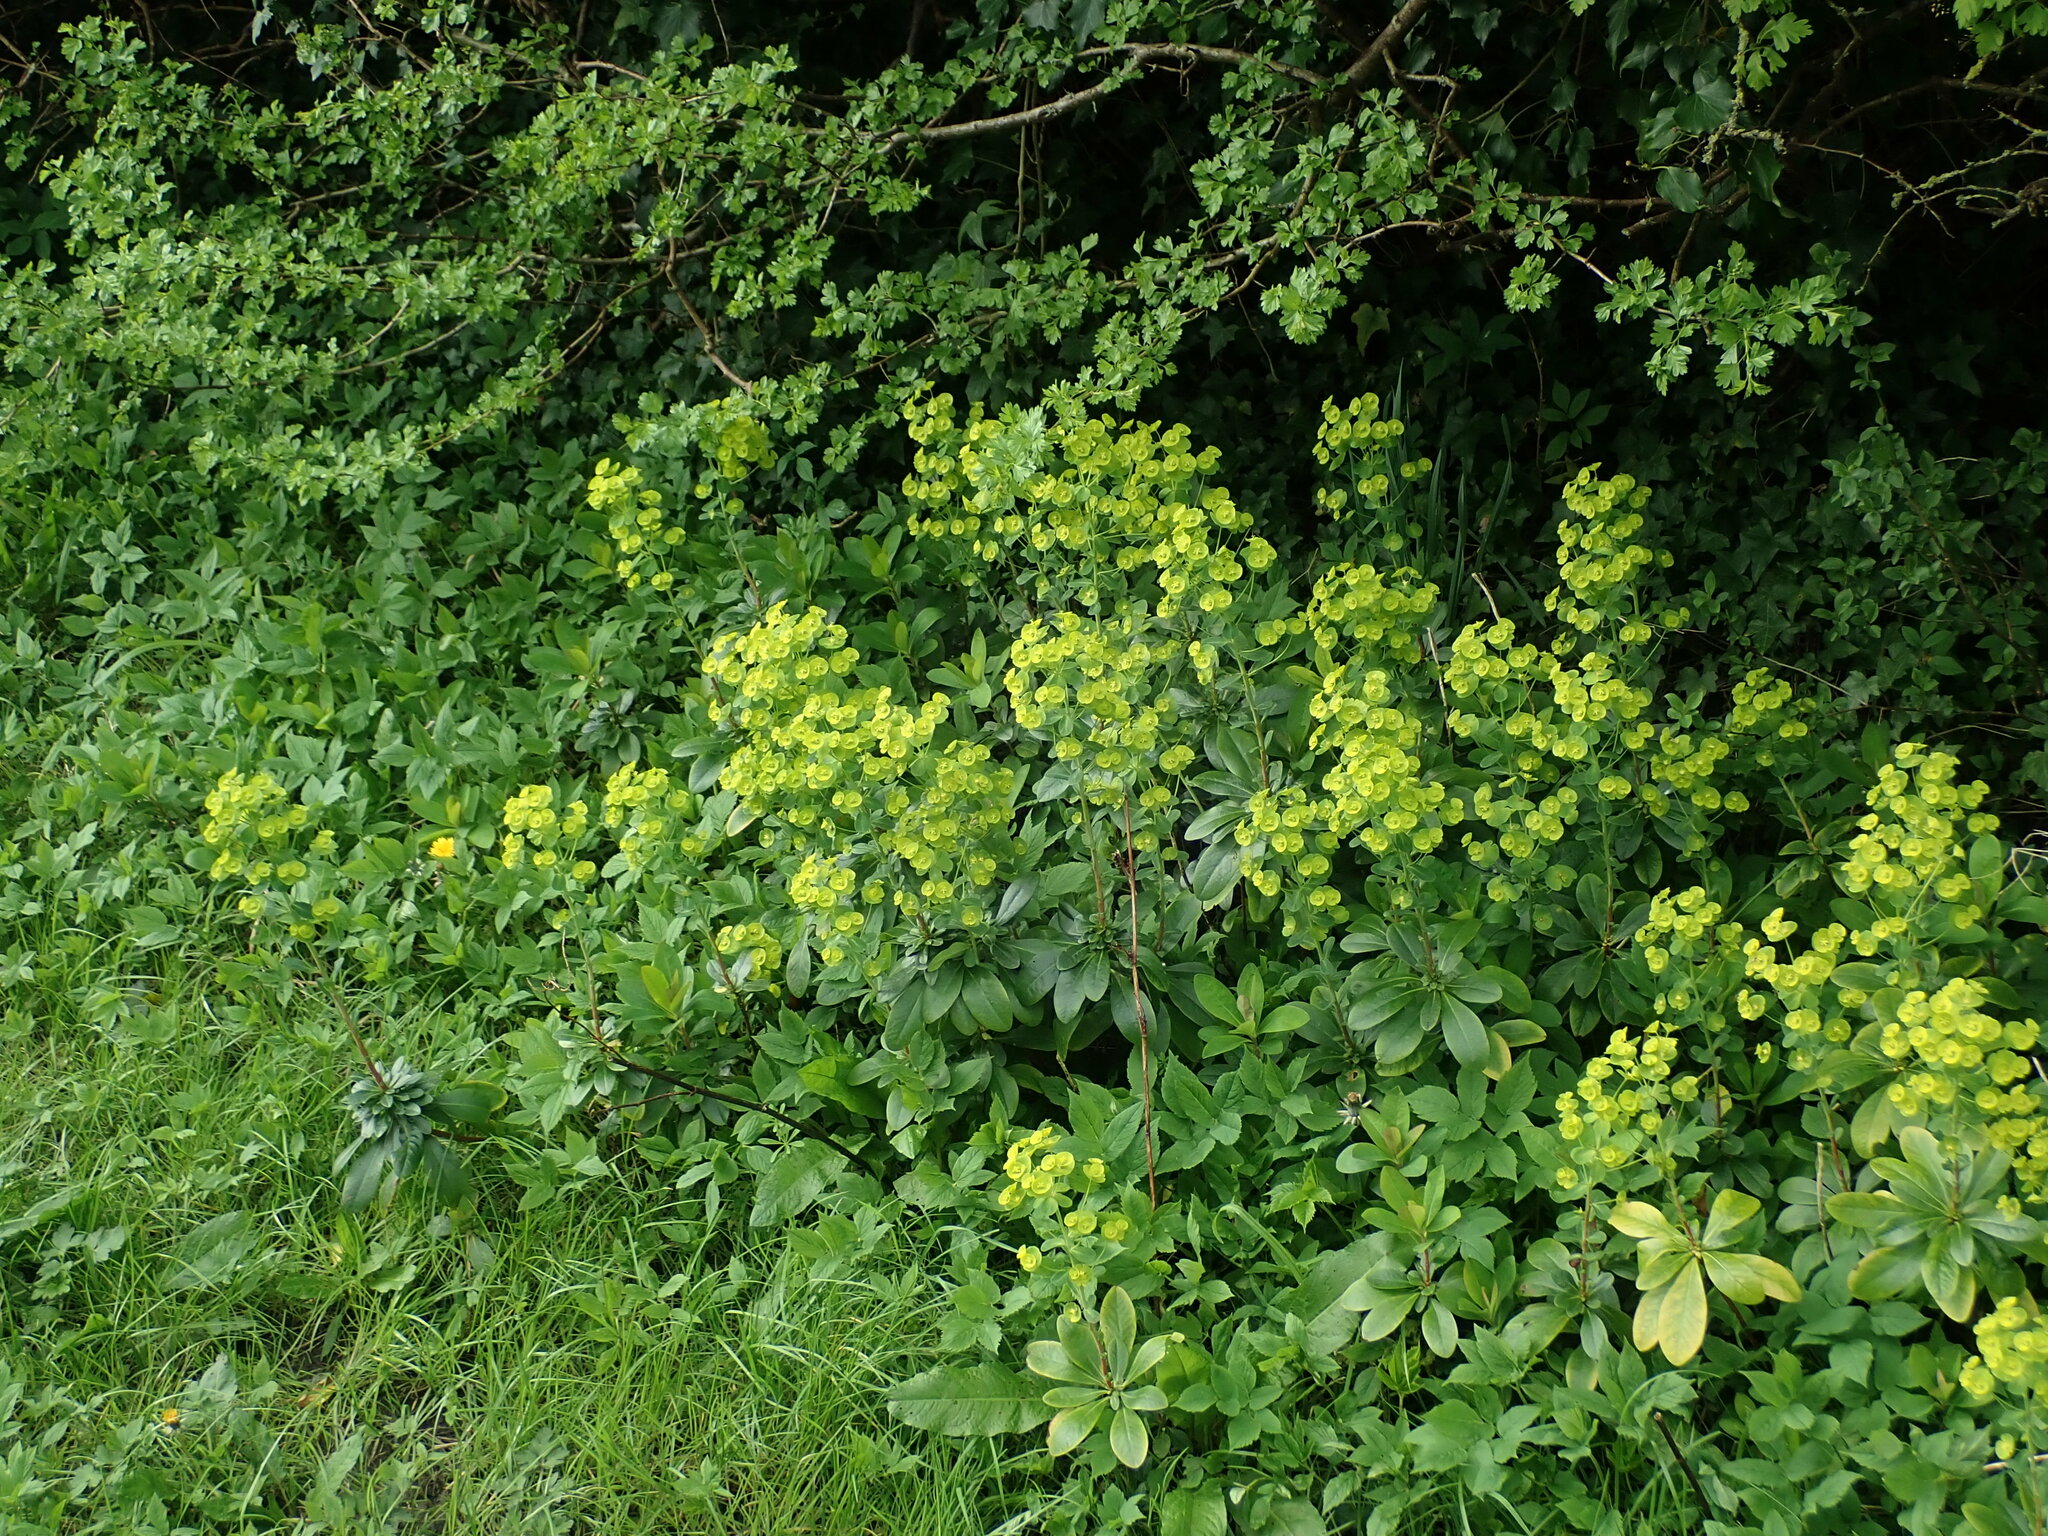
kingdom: Plantae
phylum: Tracheophyta
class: Magnoliopsida
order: Malpighiales
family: Euphorbiaceae
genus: Euphorbia
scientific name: Euphorbia amygdaloides
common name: Wood spurge
